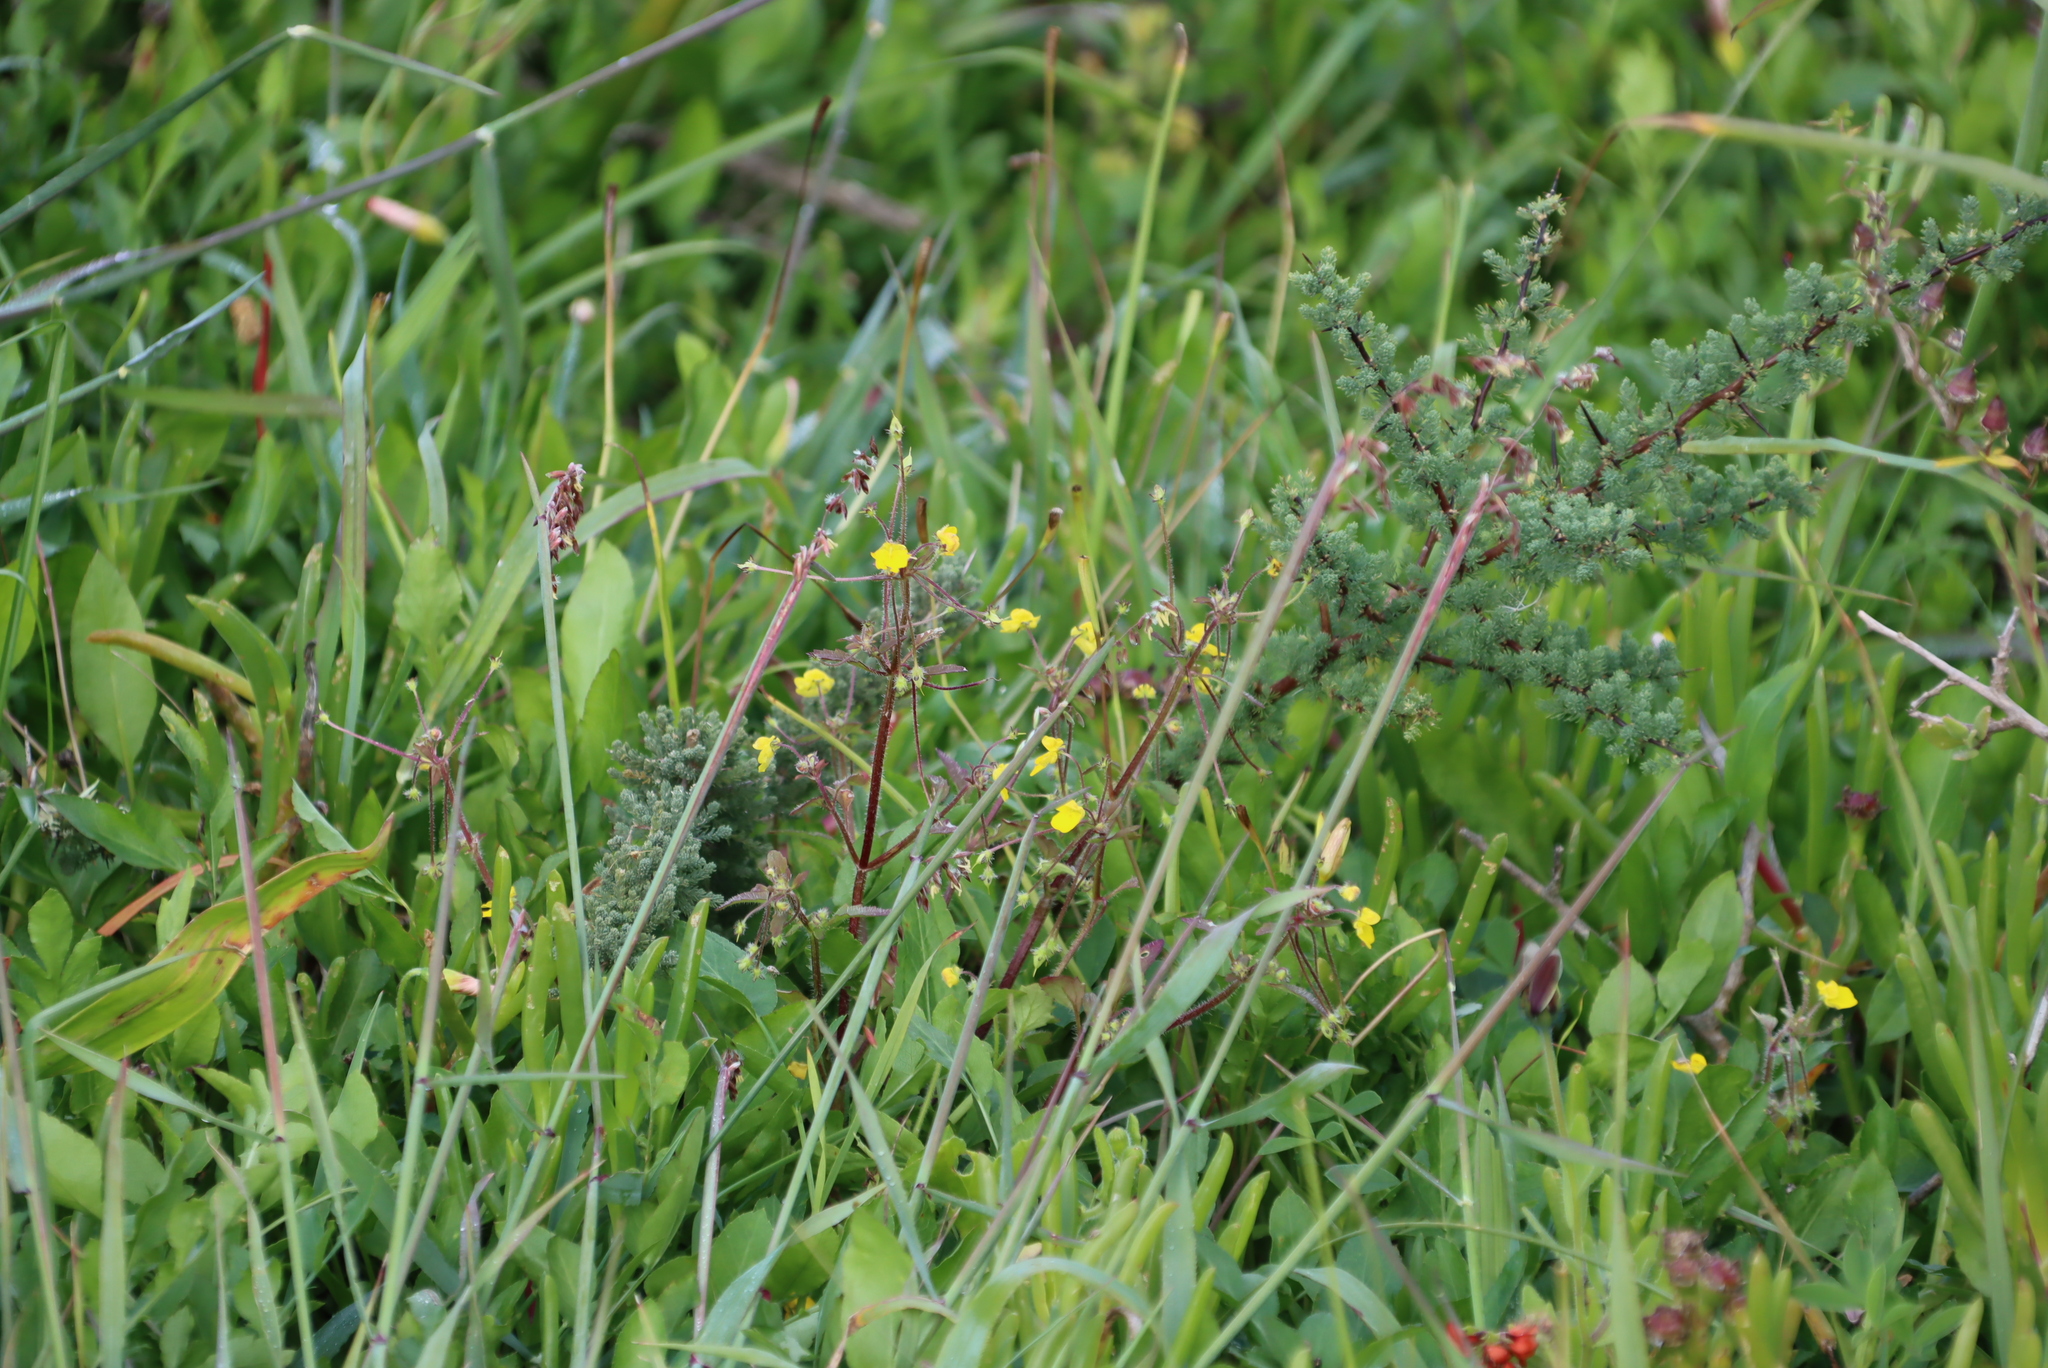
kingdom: Plantae
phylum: Tracheophyta
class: Magnoliopsida
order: Lamiales
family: Scrophulariaceae
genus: Hemimeris
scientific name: Hemimeris racemosa
